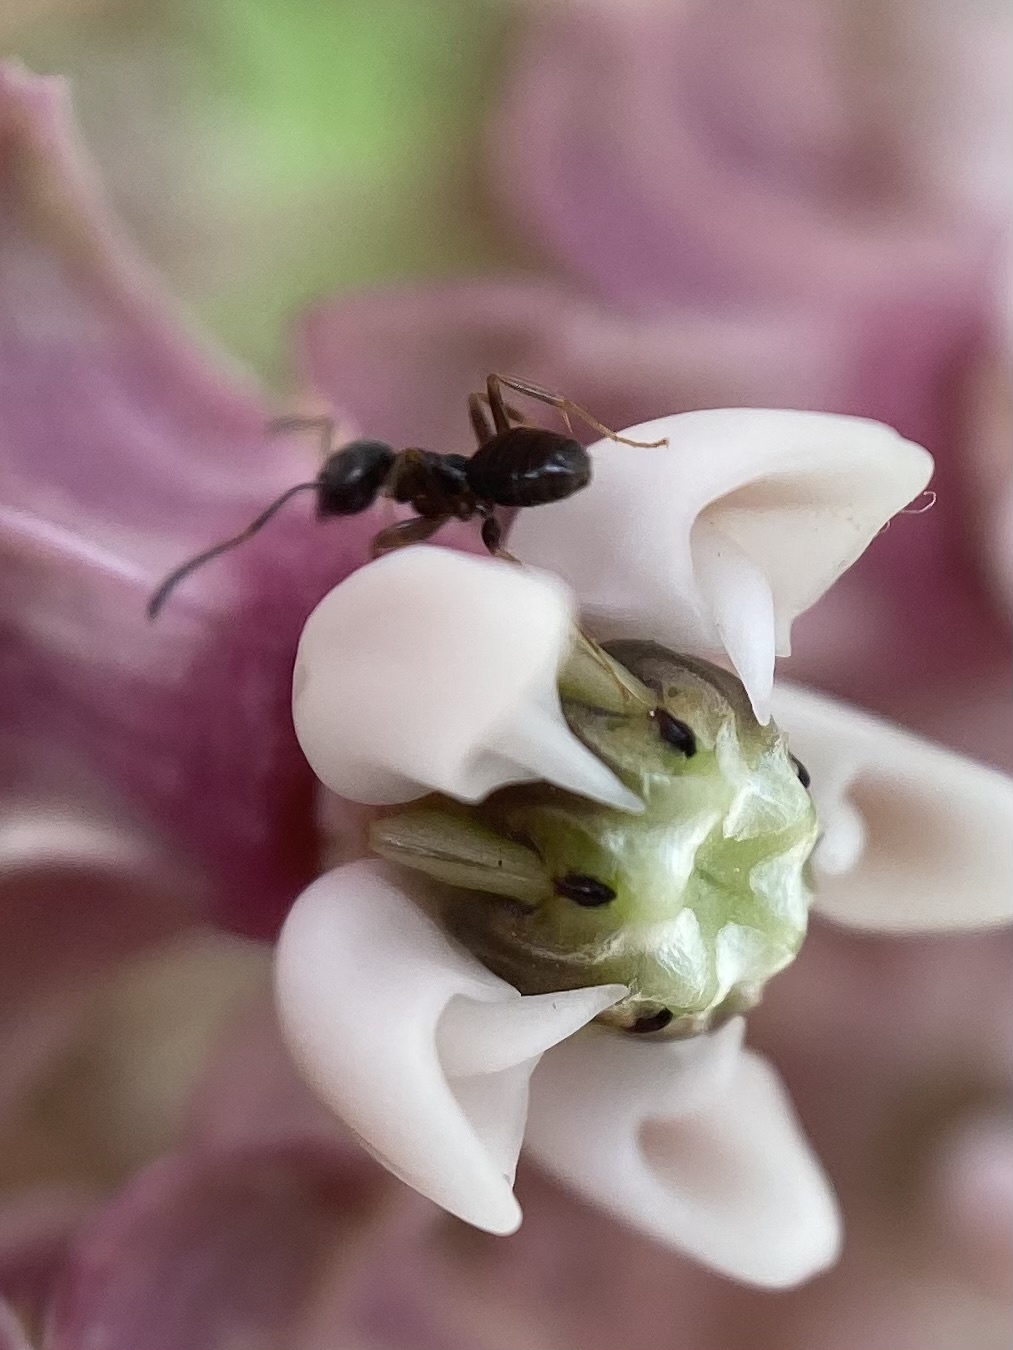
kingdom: Animalia
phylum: Arthropoda
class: Insecta
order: Hymenoptera
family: Formicidae
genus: Tapinoma
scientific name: Tapinoma sessile
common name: Odorous house ant
